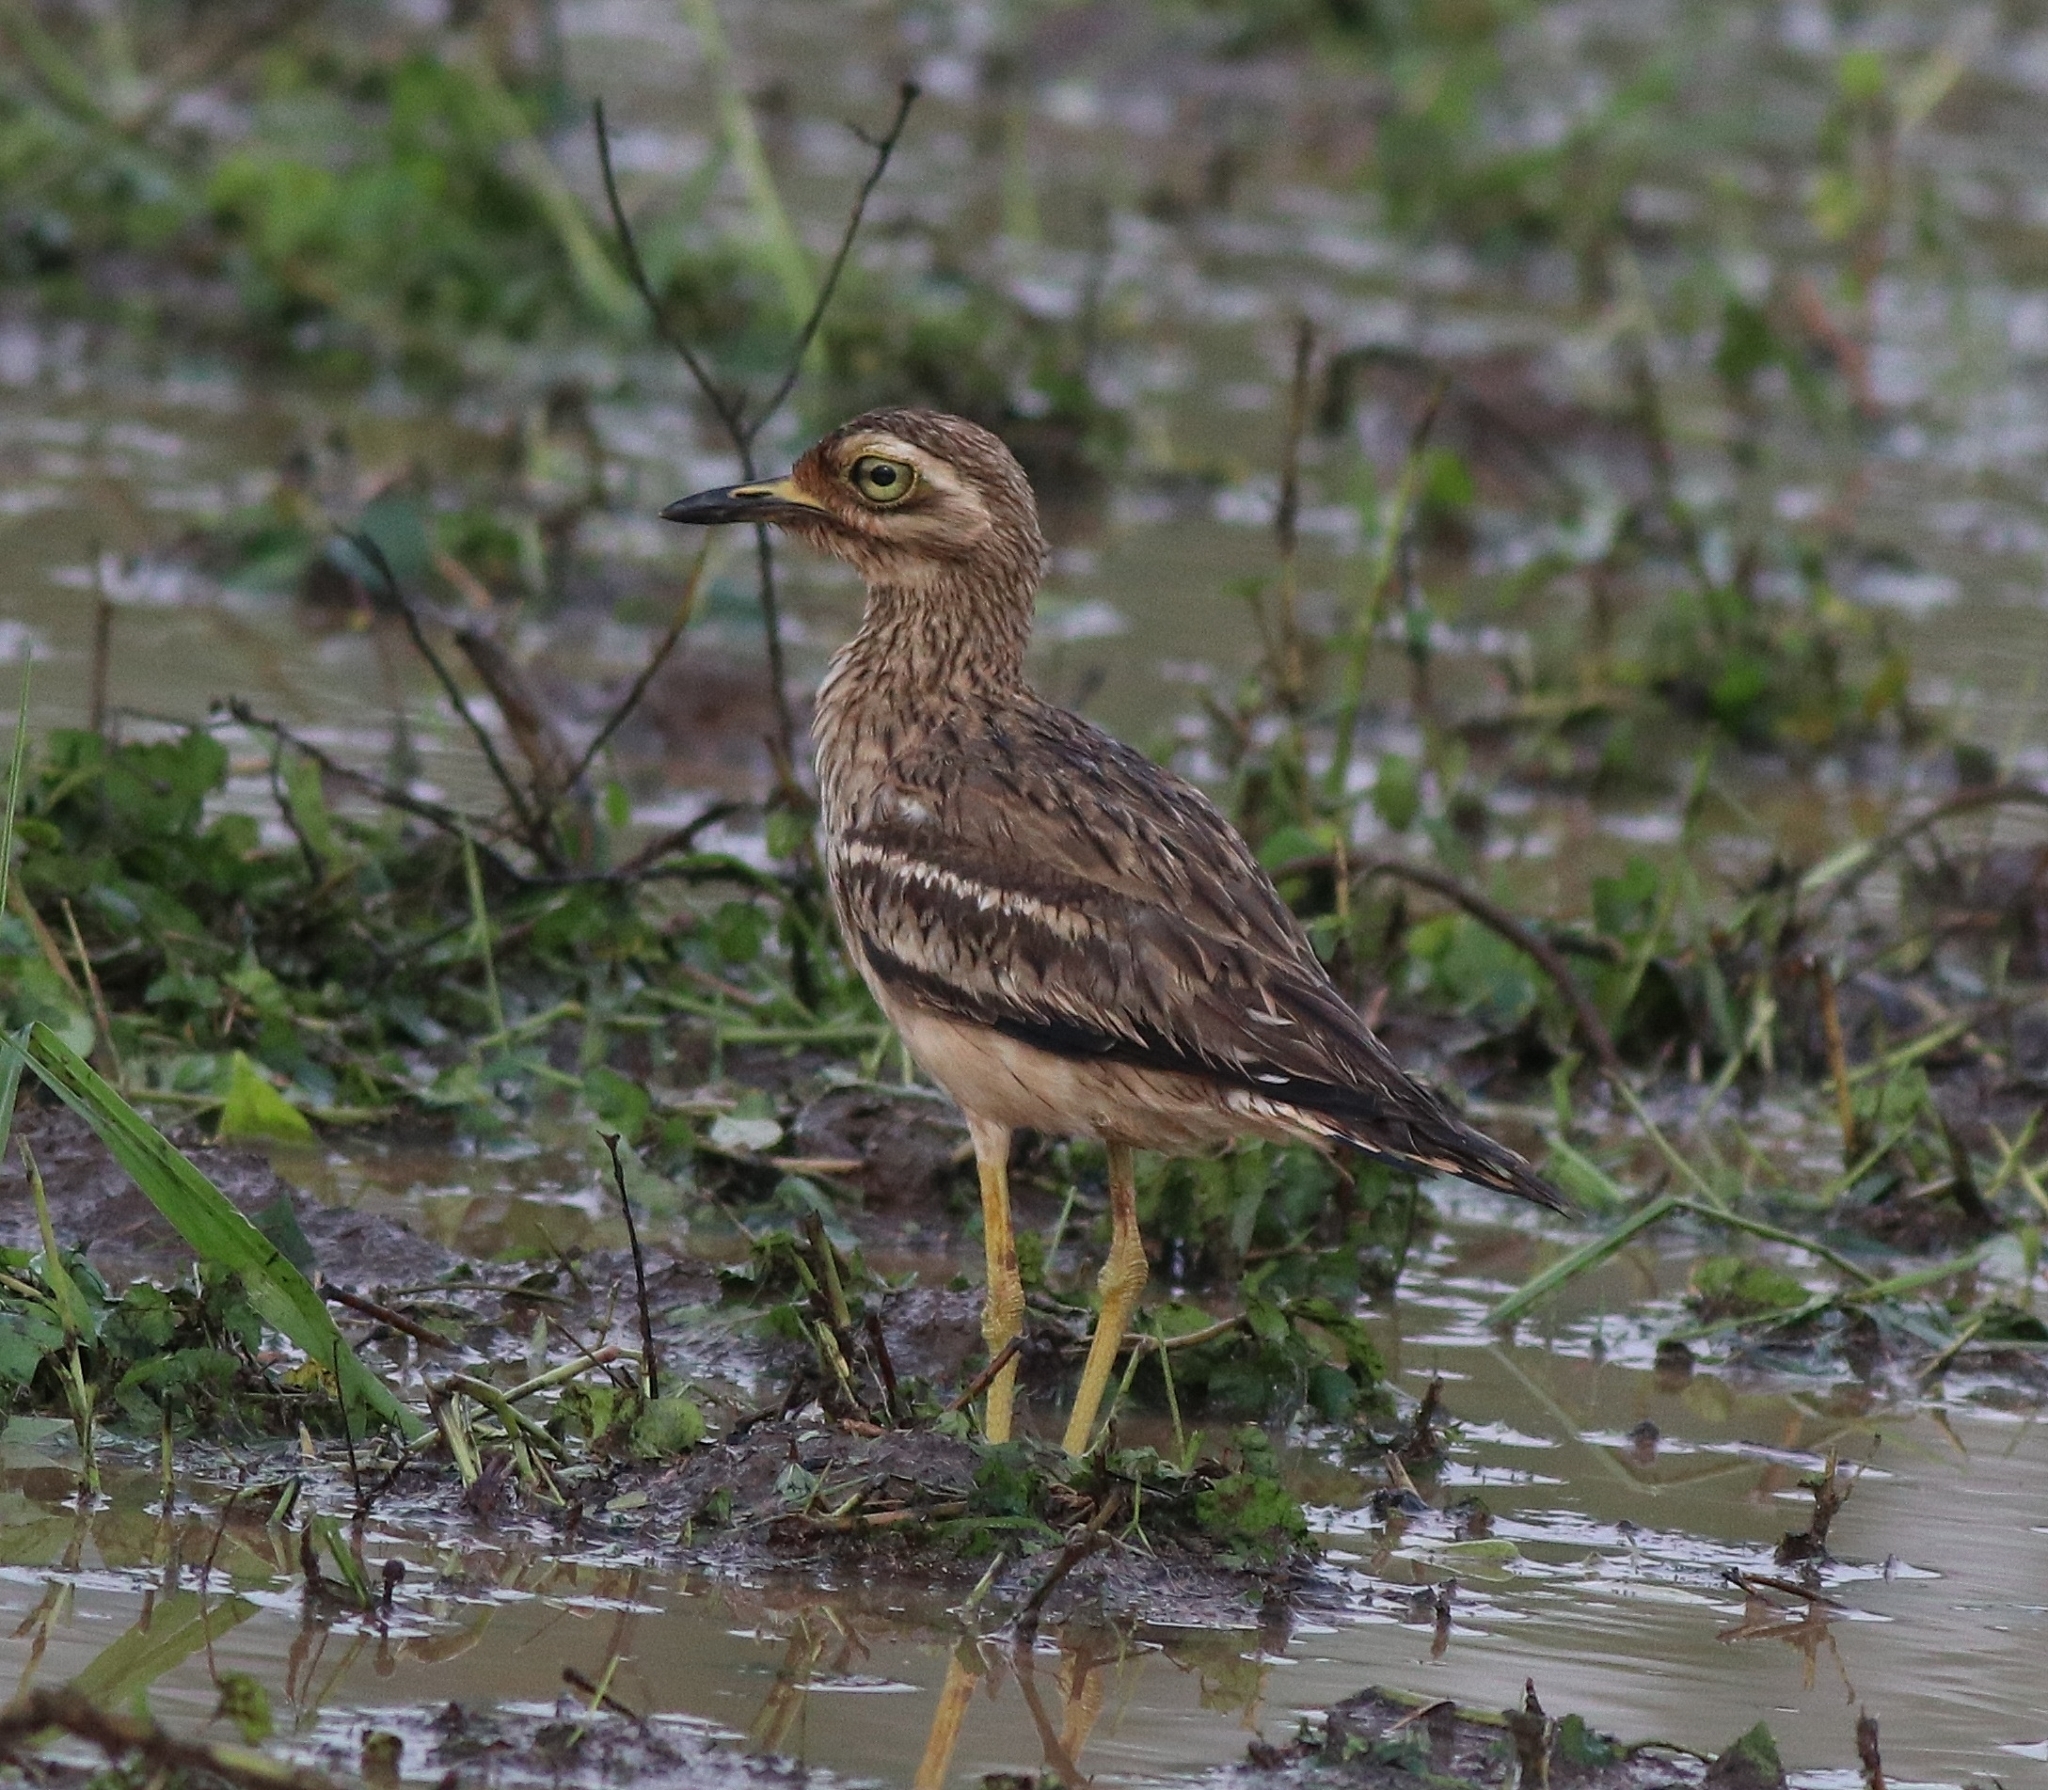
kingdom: Animalia
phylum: Chordata
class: Aves
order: Charadriiformes
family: Burhinidae
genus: Burhinus
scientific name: Burhinus indicus
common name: Indian thick-knee
